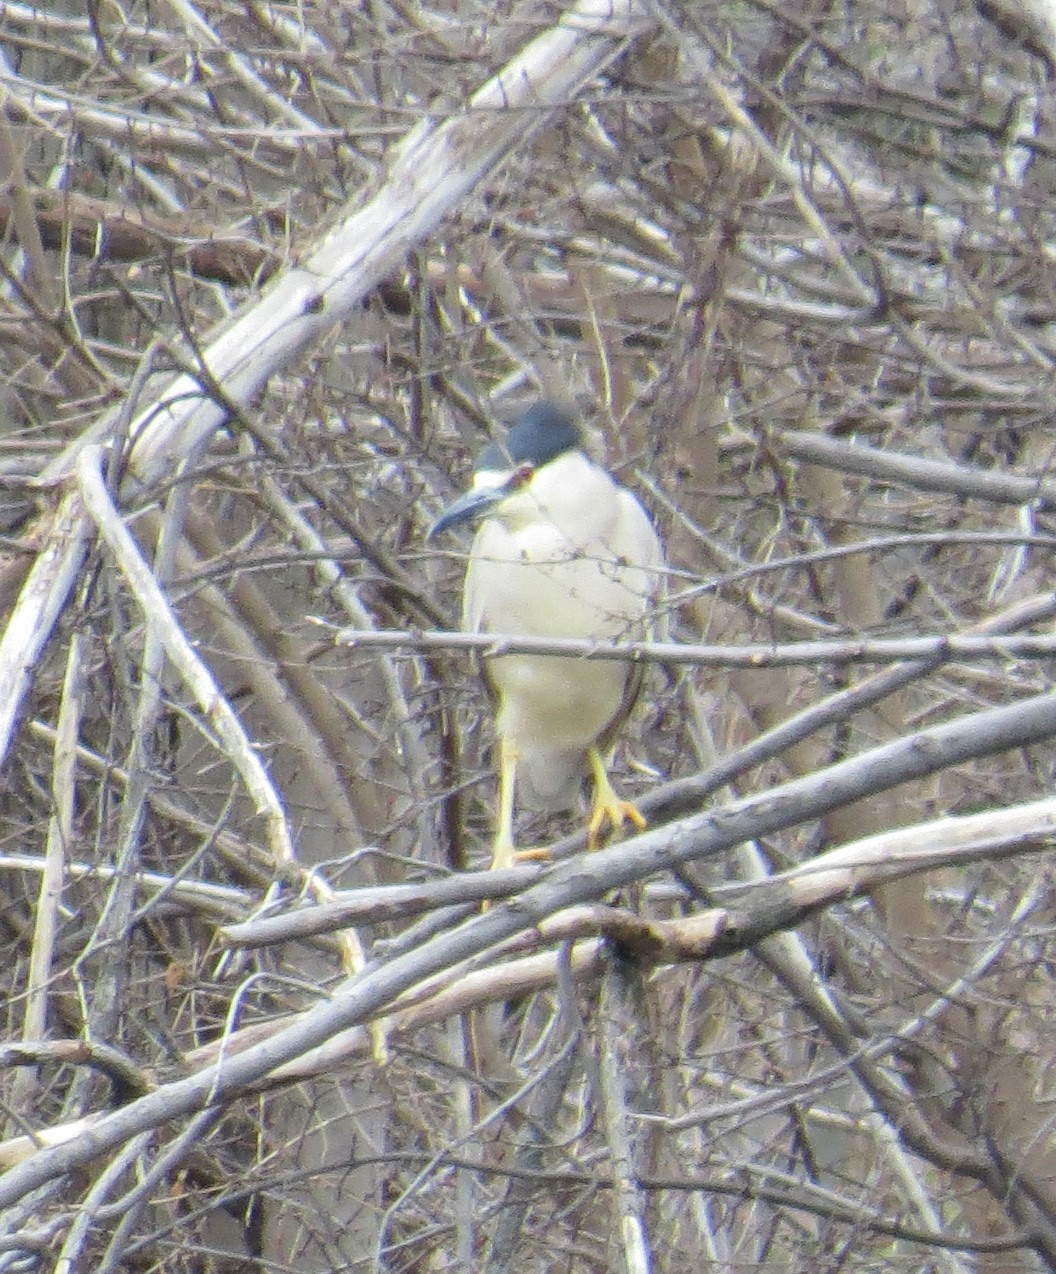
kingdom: Animalia
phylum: Chordata
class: Aves
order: Pelecaniformes
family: Ardeidae
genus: Nycticorax
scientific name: Nycticorax nycticorax
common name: Black-crowned night heron
